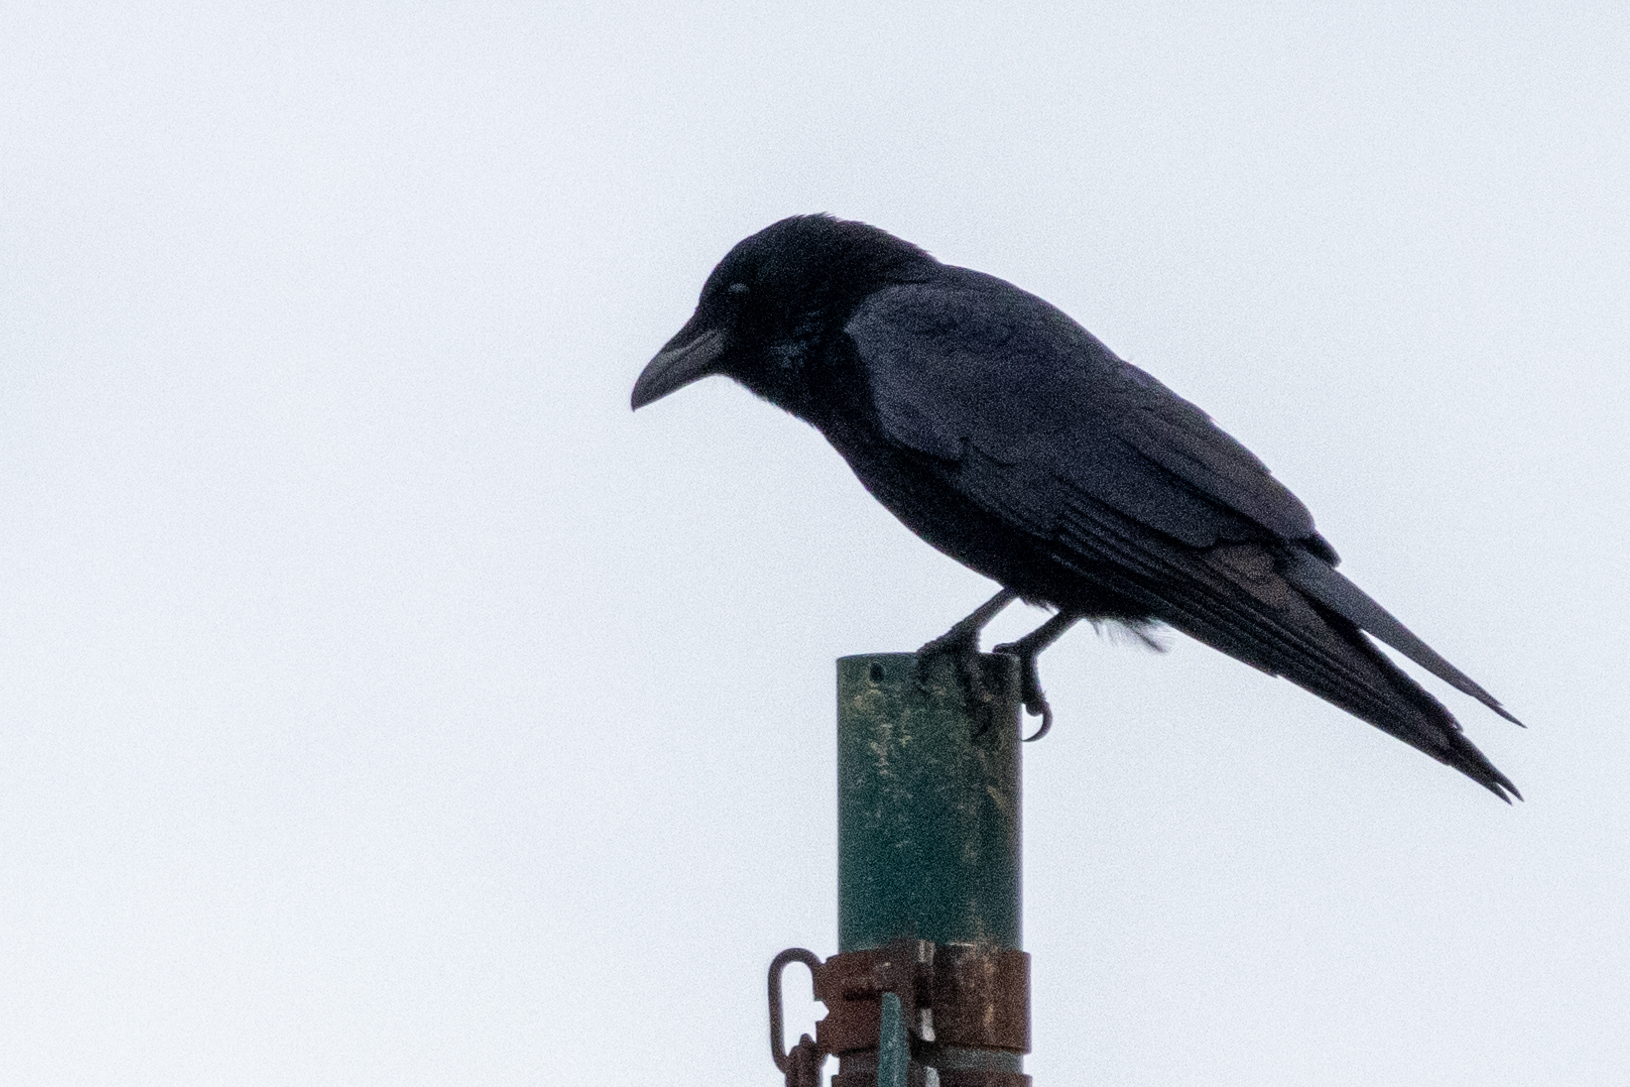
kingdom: Animalia
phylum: Chordata
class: Aves
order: Passeriformes
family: Corvidae
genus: Corvus
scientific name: Corvus corone
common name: Carrion crow
